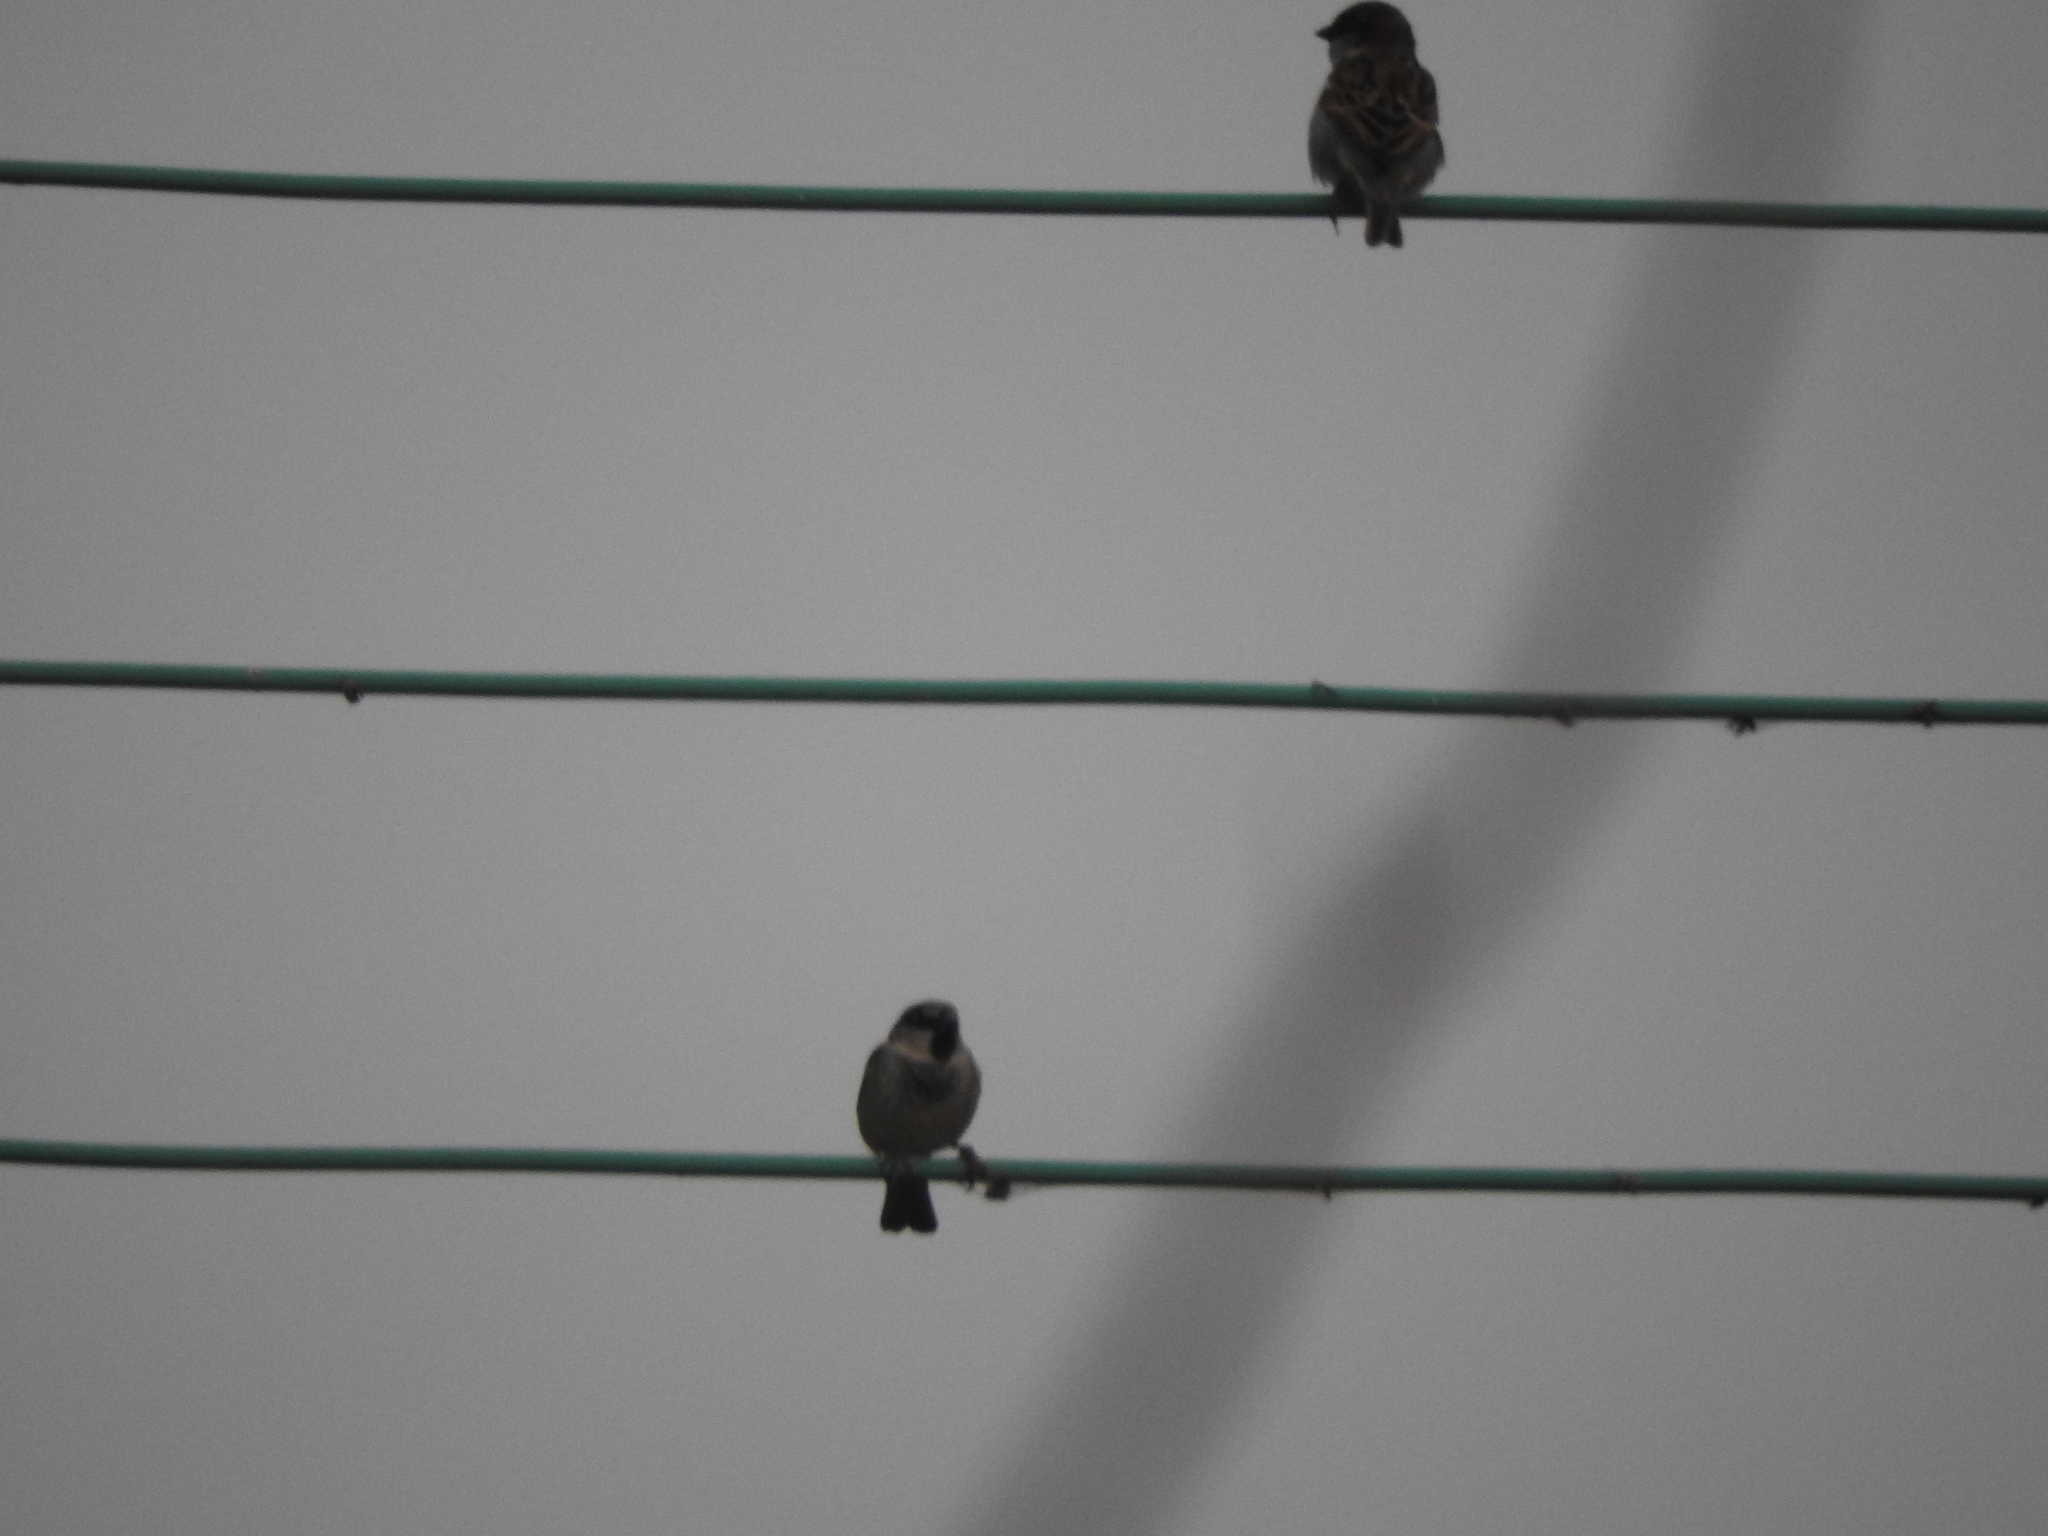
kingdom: Animalia
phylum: Chordata
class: Aves
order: Passeriformes
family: Passeridae
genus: Passer
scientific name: Passer domesticus
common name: House sparrow
